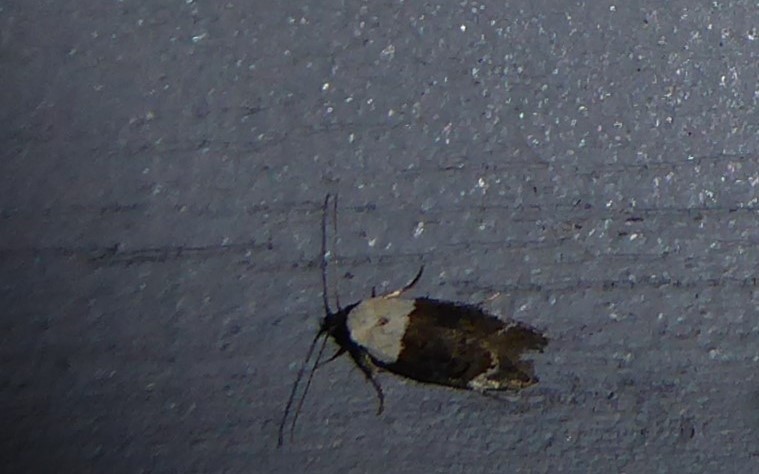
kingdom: Animalia
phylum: Arthropoda
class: Insecta
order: Lepidoptera
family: Oecophoridae
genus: Trachypepla
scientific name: Trachypepla euryleucota
